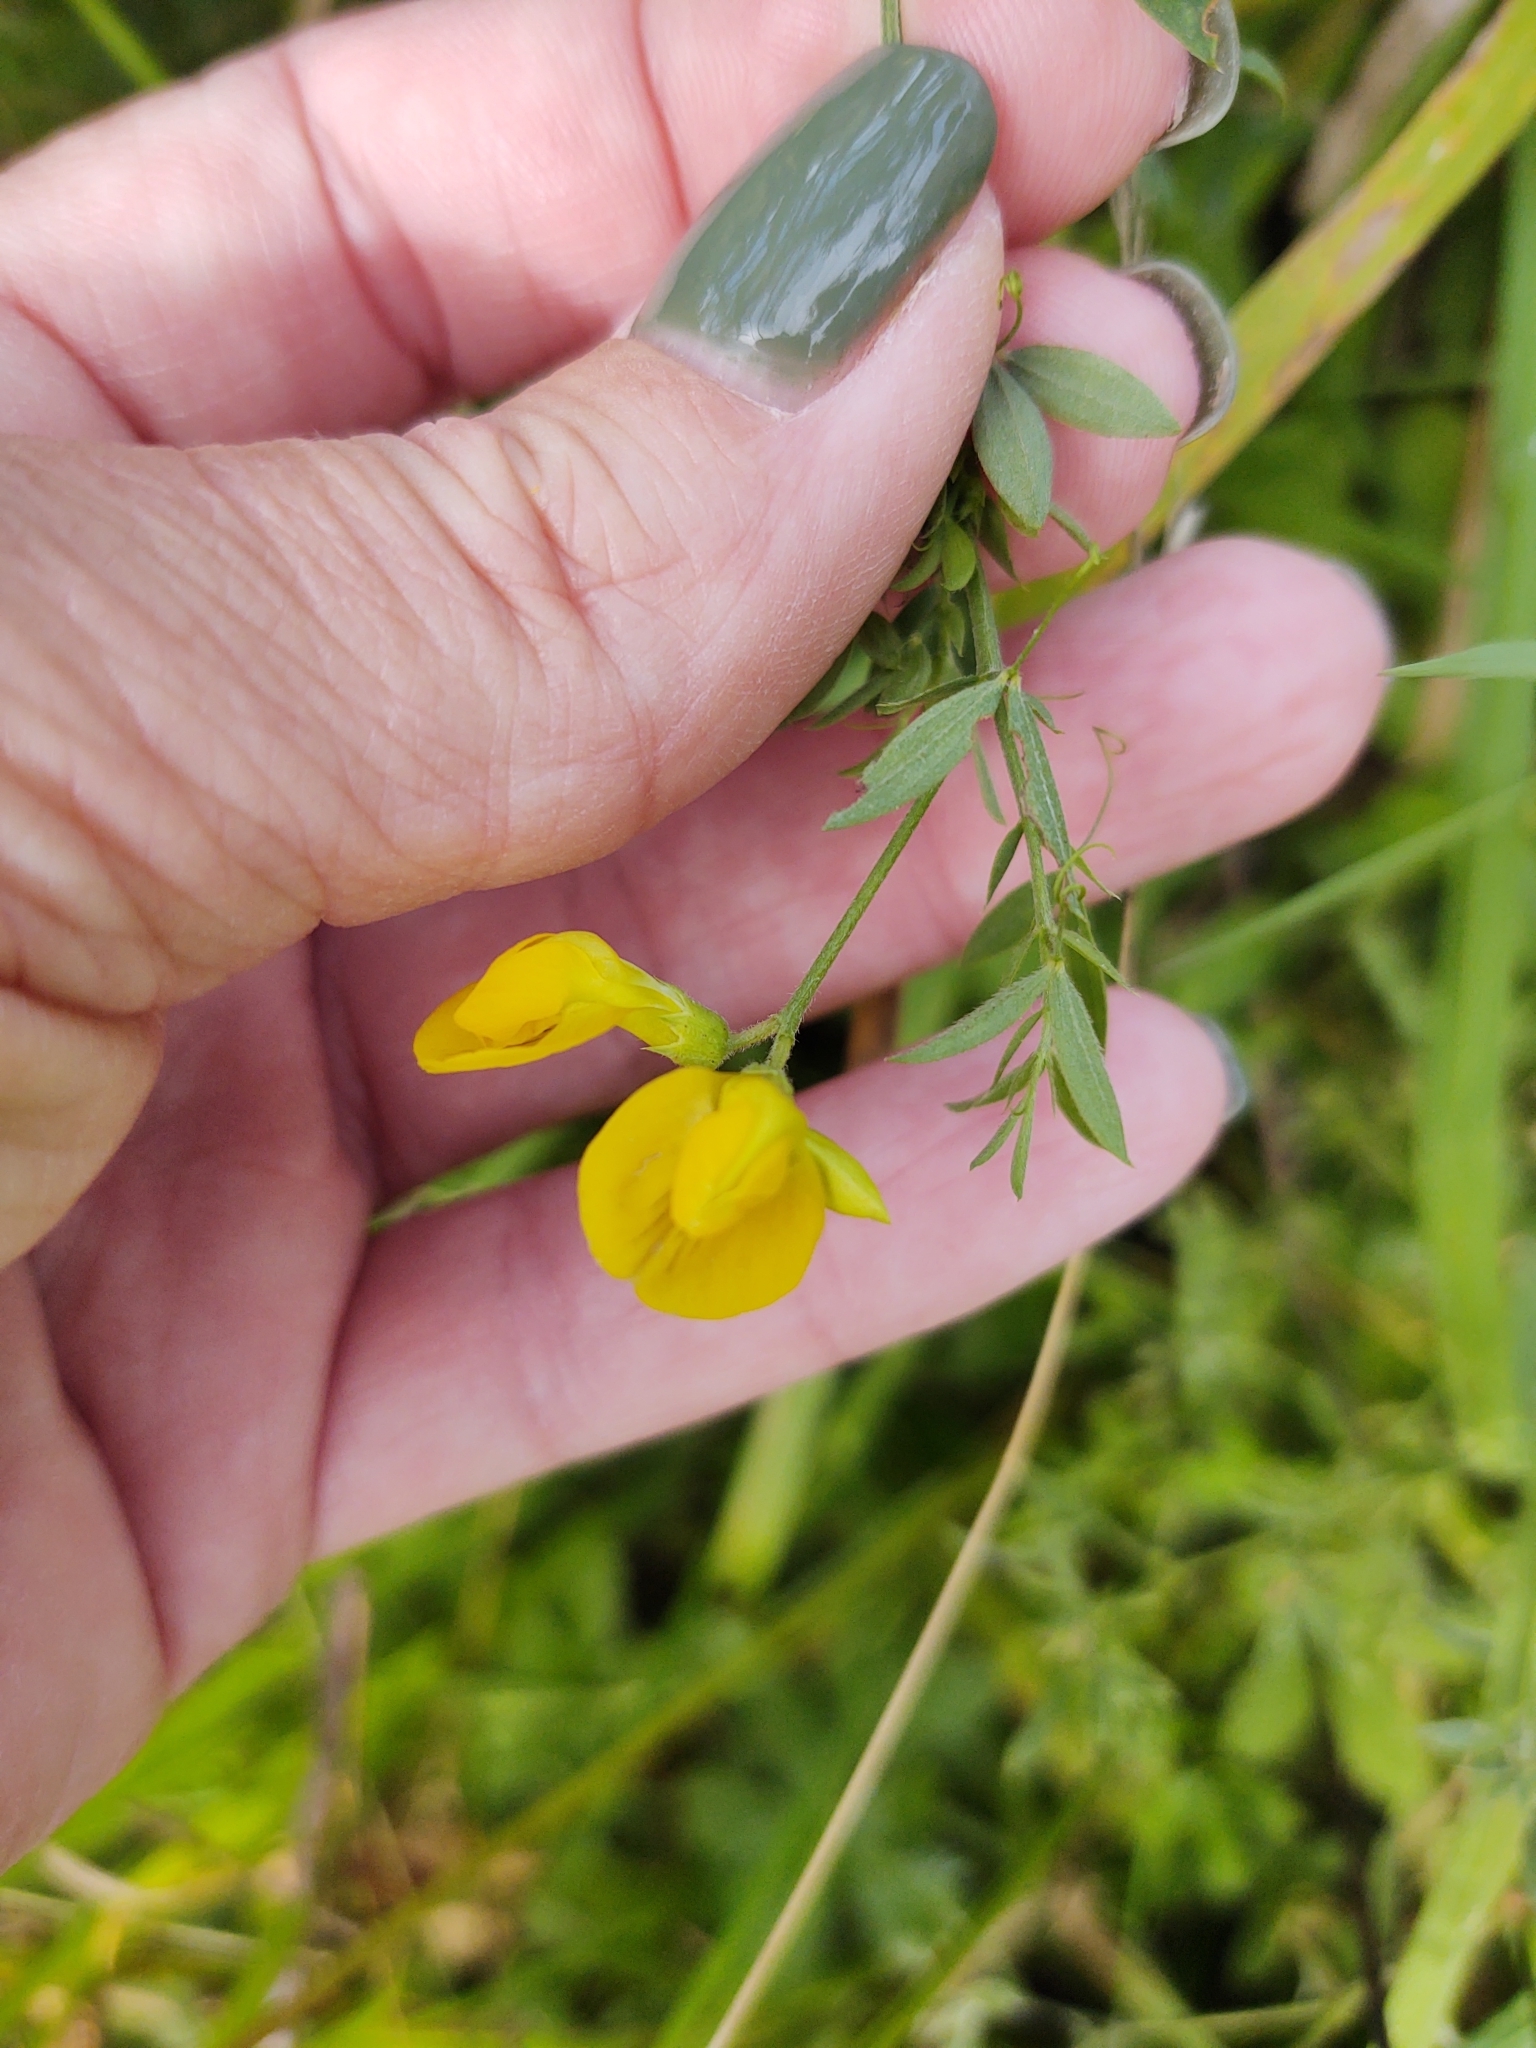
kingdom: Plantae
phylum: Tracheophyta
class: Magnoliopsida
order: Fabales
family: Fabaceae
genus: Lathyrus
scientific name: Lathyrus pratensis
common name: Meadow vetchling
